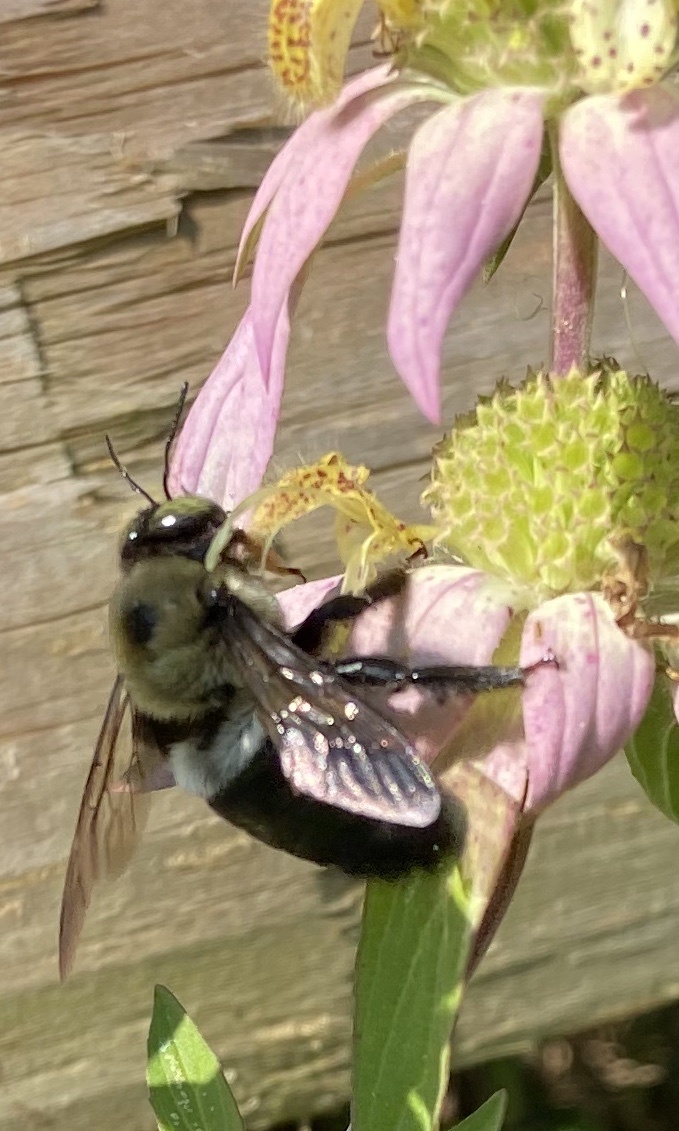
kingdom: Animalia
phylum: Arthropoda
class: Insecta
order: Hymenoptera
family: Apidae
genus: Xylocopa
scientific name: Xylocopa virginica
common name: Carpenter bee
